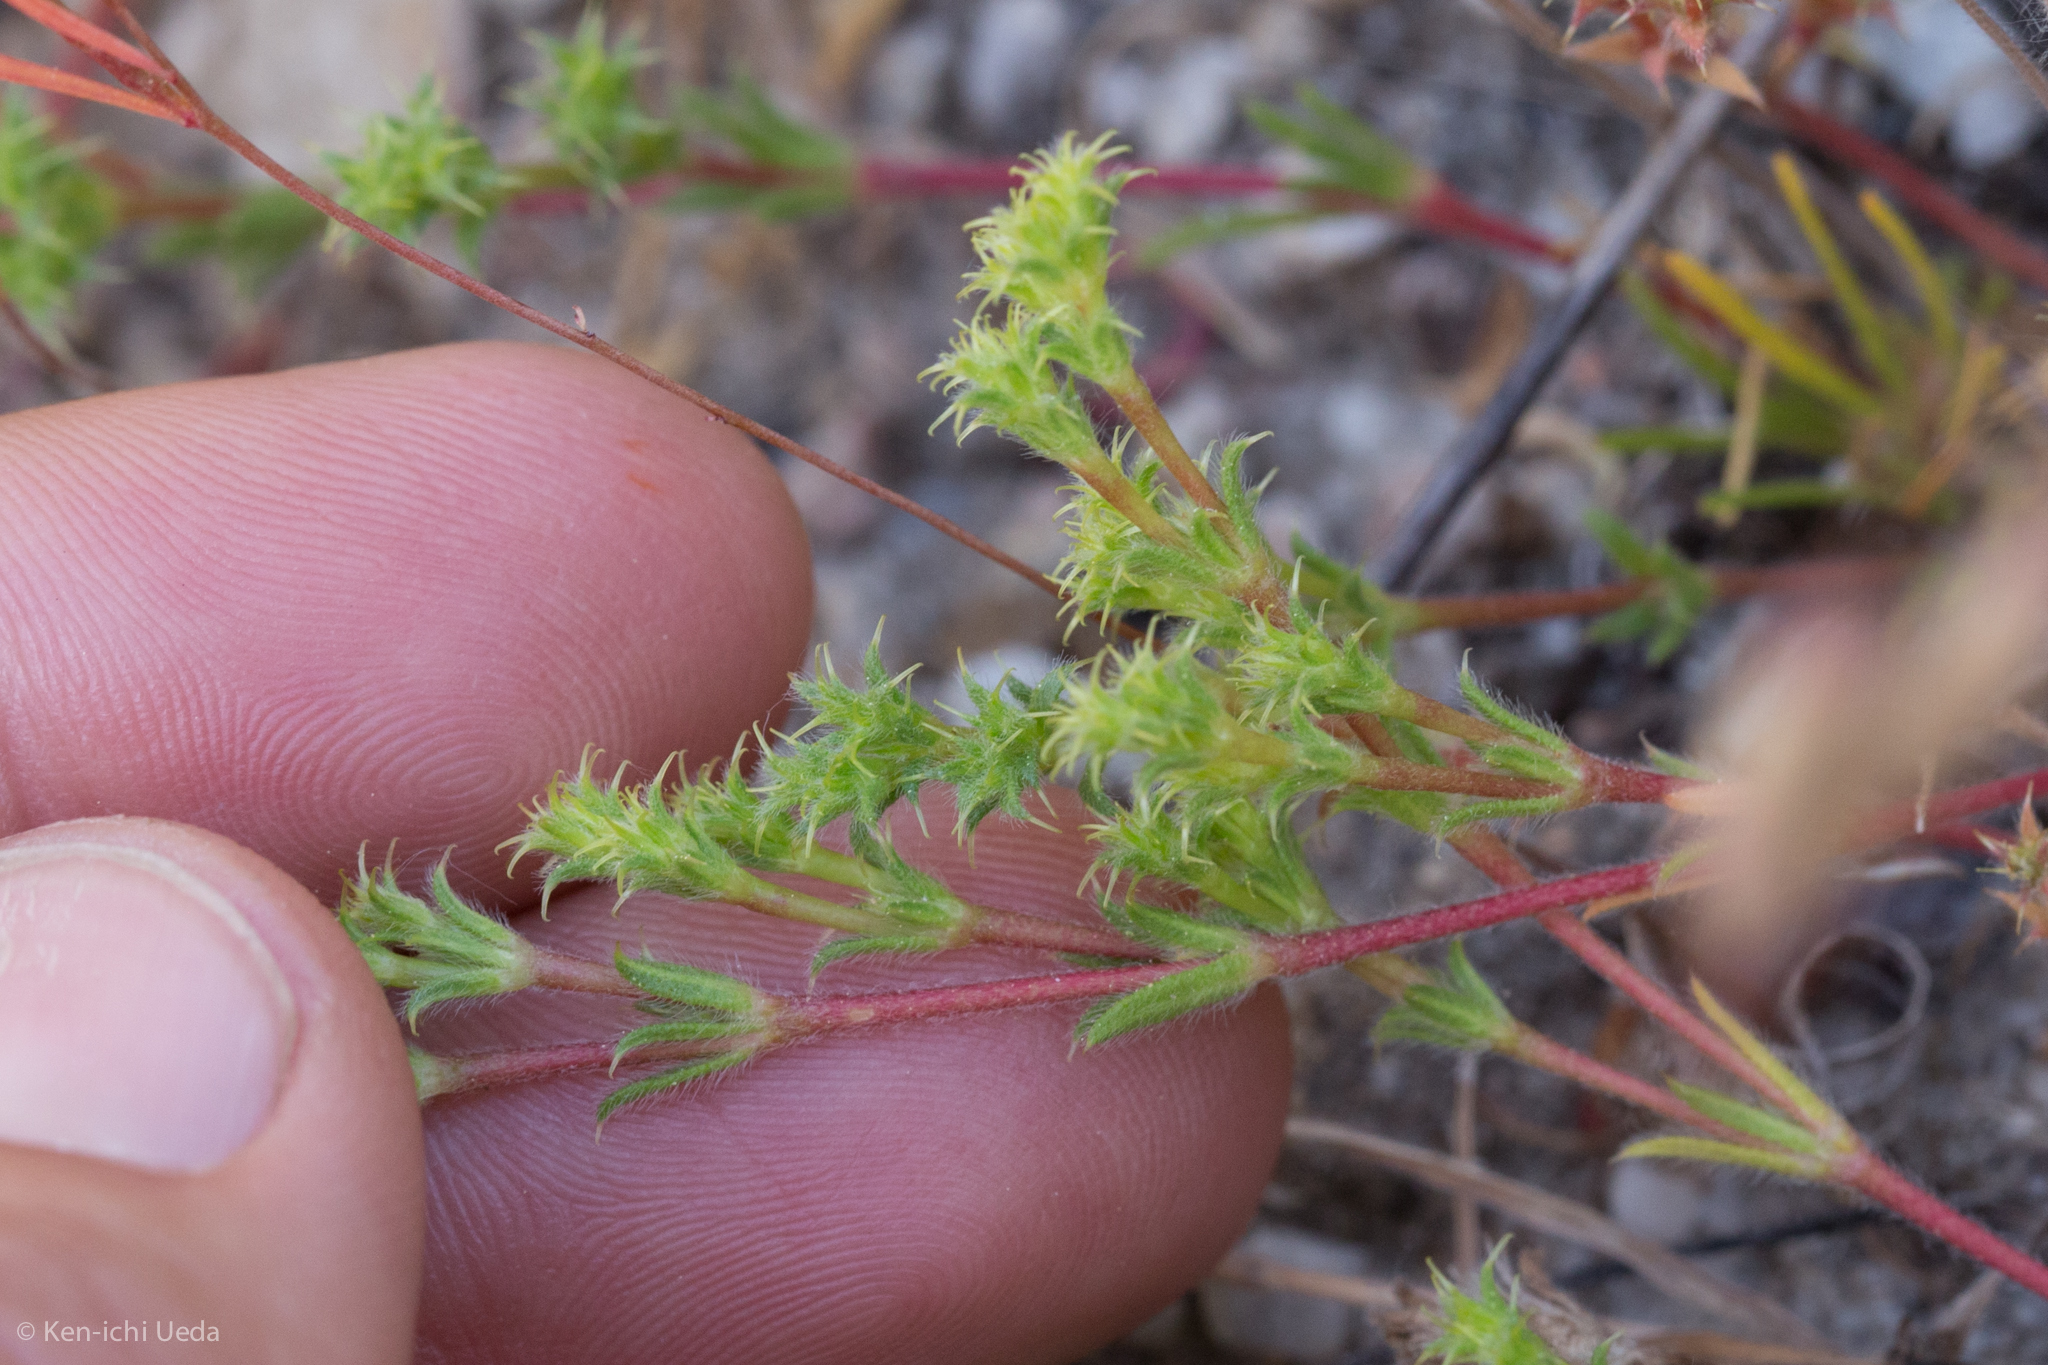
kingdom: Plantae
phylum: Tracheophyta
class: Magnoliopsida
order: Caryophyllales
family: Polygonaceae
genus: Lastarriaea
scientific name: Lastarriaea coriacea
